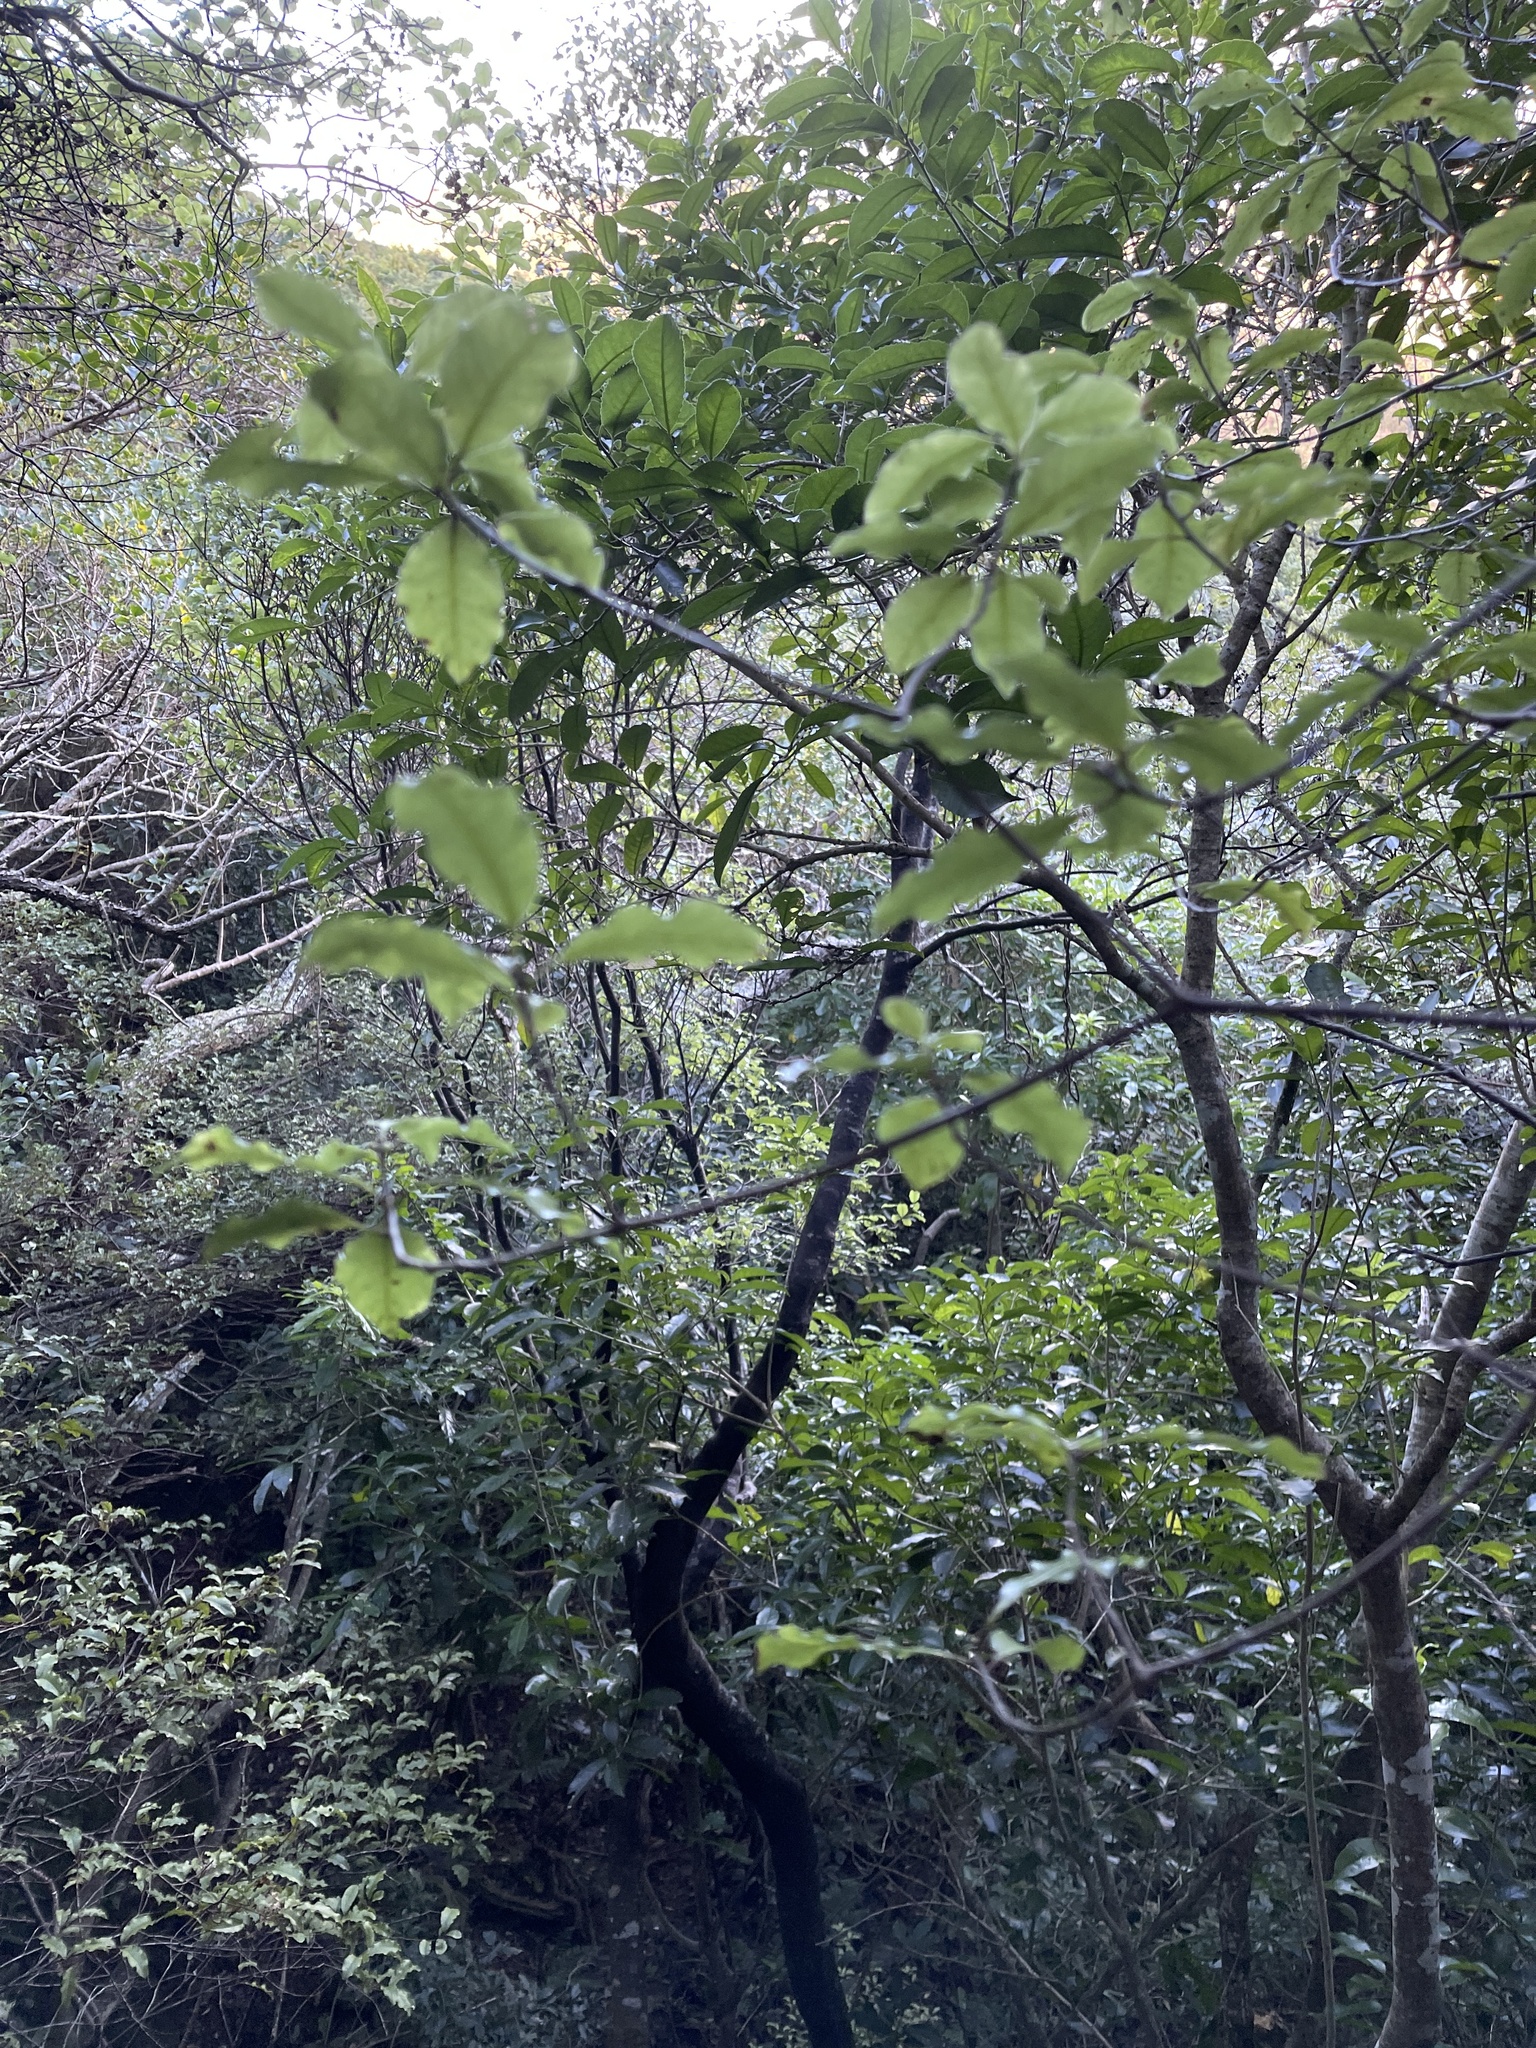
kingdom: Plantae
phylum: Tracheophyta
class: Magnoliopsida
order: Apiales
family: Pittosporaceae
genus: Pittosporum
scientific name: Pittosporum tenuifolium
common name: Kohuhu
